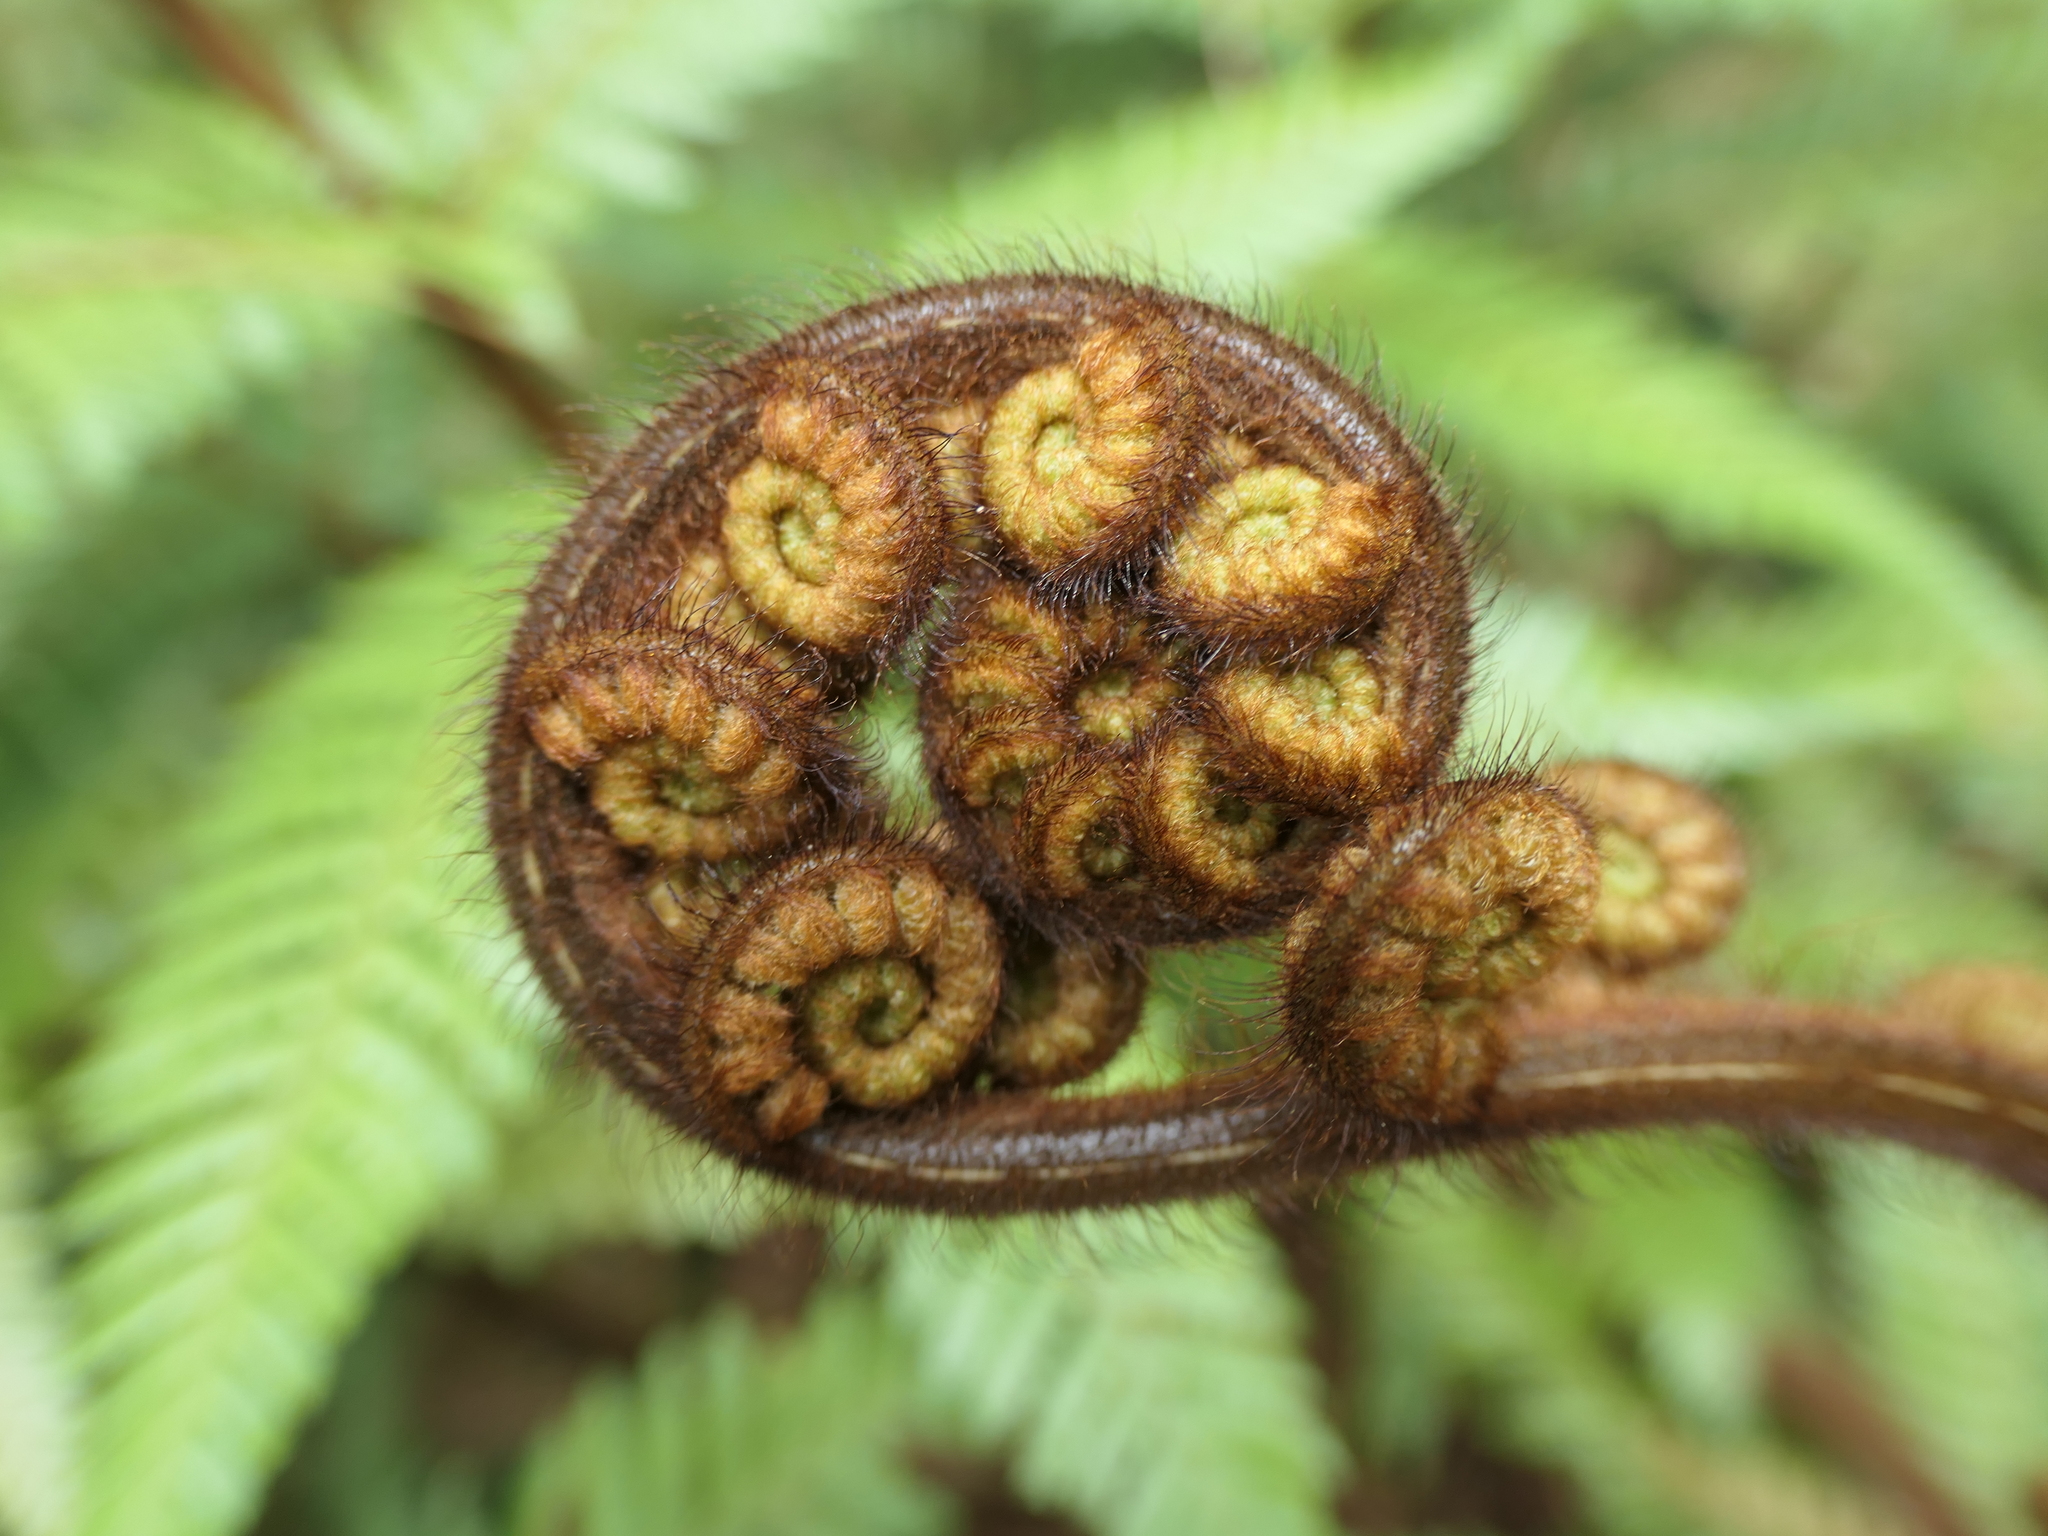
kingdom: Plantae
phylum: Tracheophyta
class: Polypodiopsida
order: Cyatheales
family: Dicksoniaceae
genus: Dicksonia
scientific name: Dicksonia squarrosa
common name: Hard treefern
